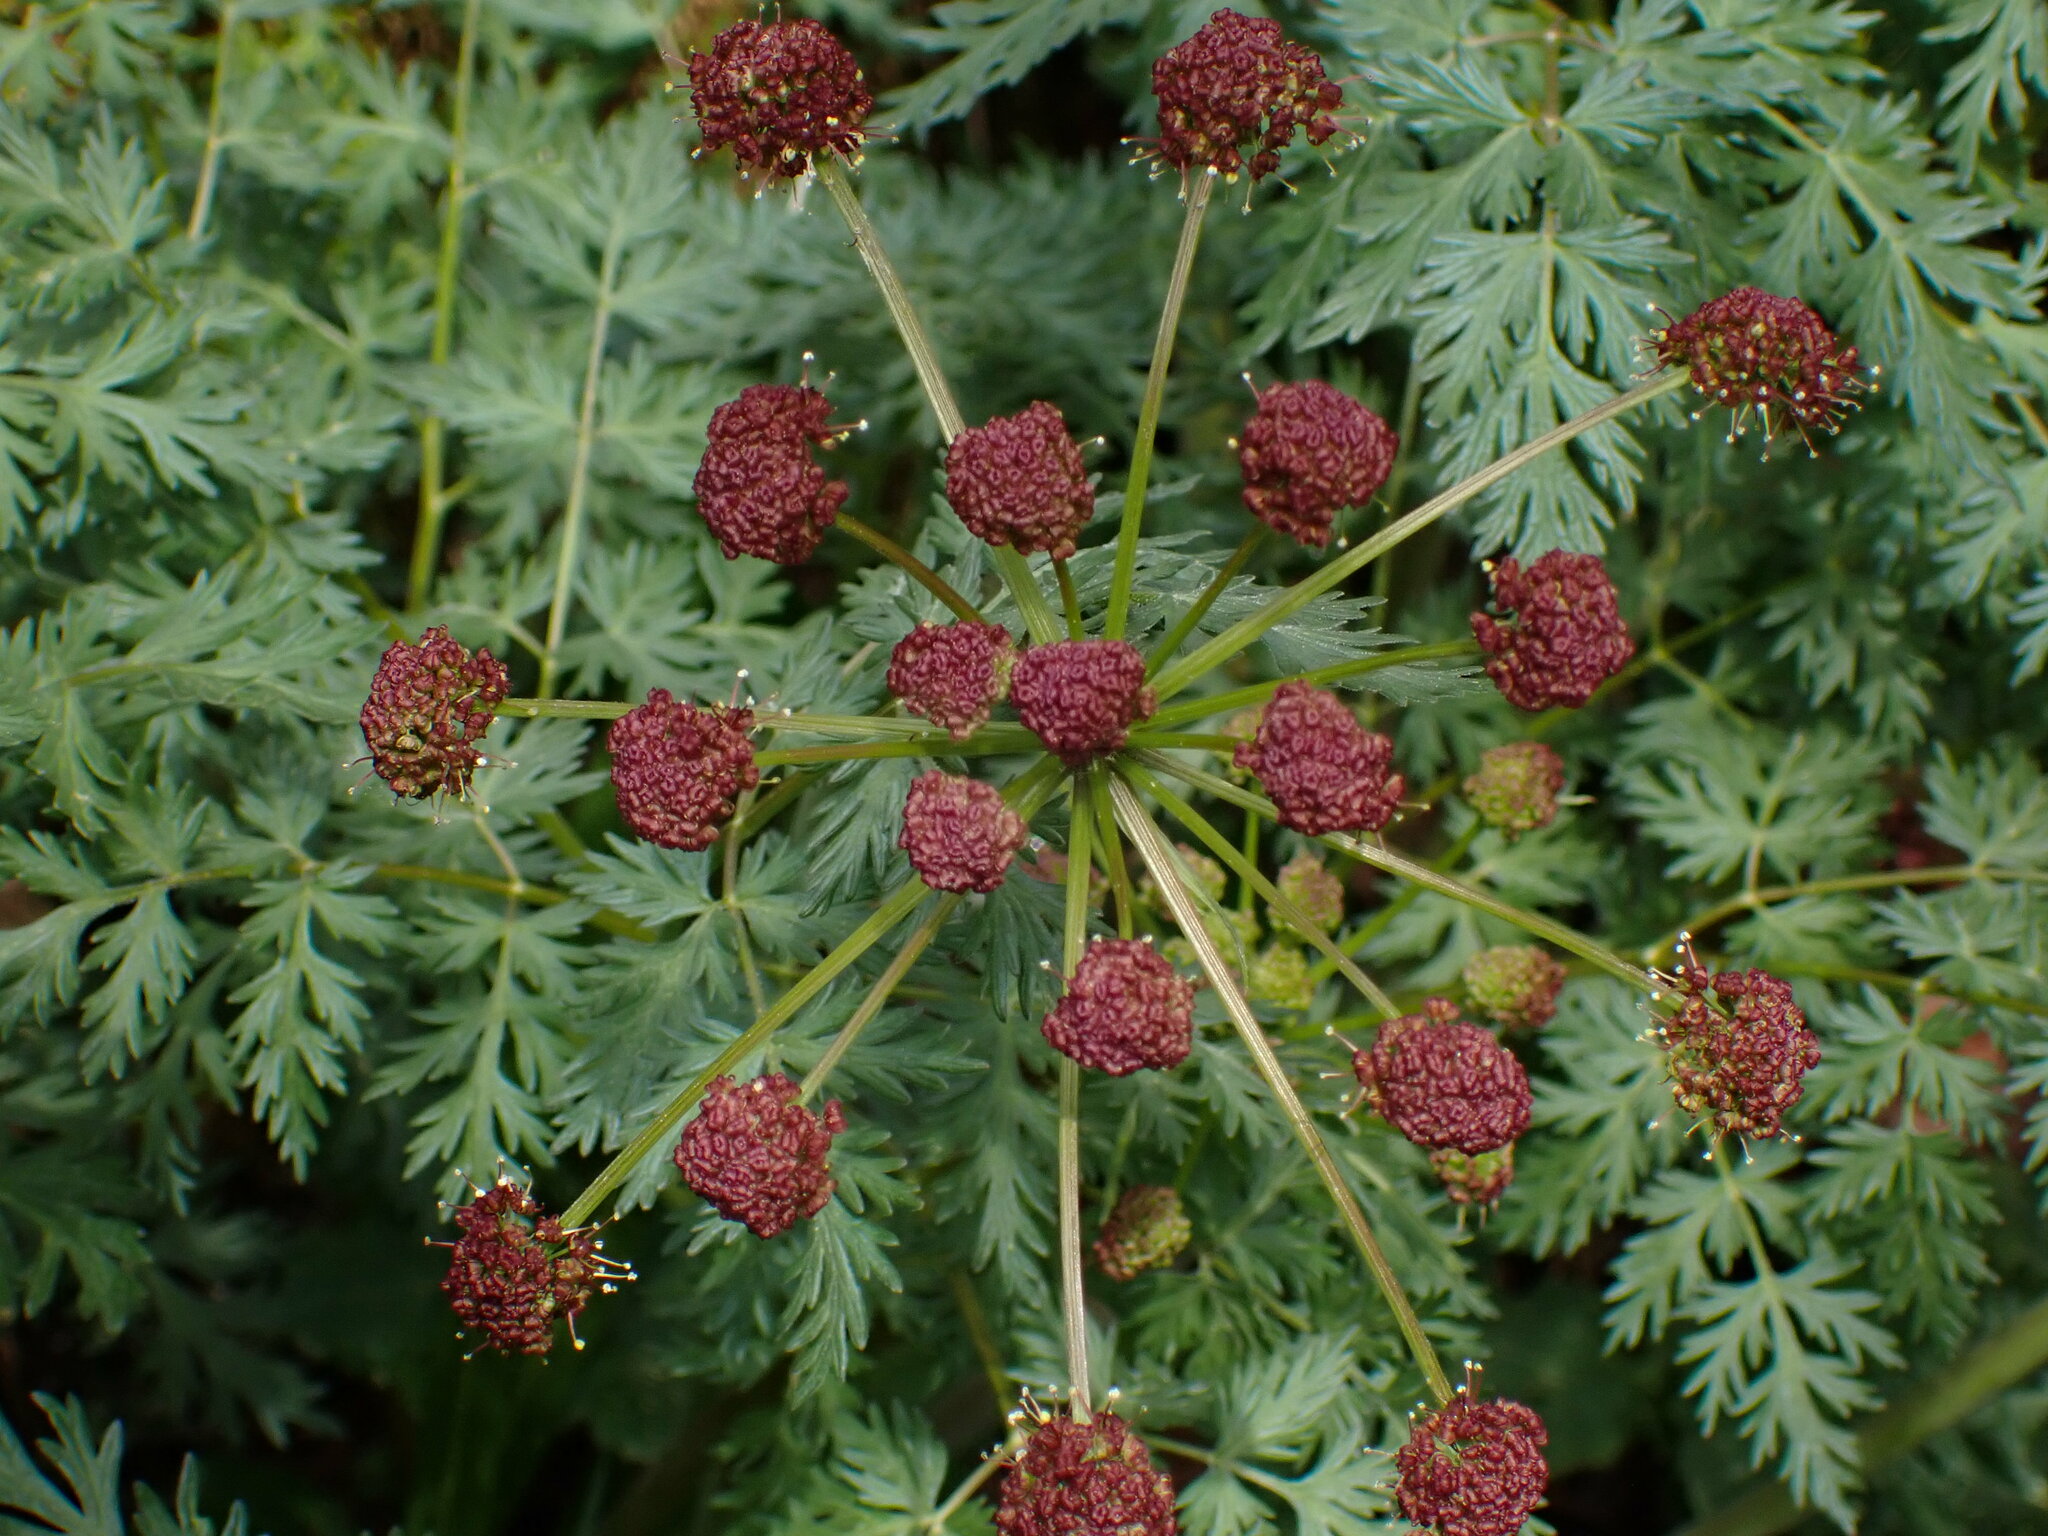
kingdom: Plantae
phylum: Tracheophyta
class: Magnoliopsida
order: Apiales
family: Apiaceae
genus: Lomatium
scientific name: Lomatium dissectum
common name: Lomatium
